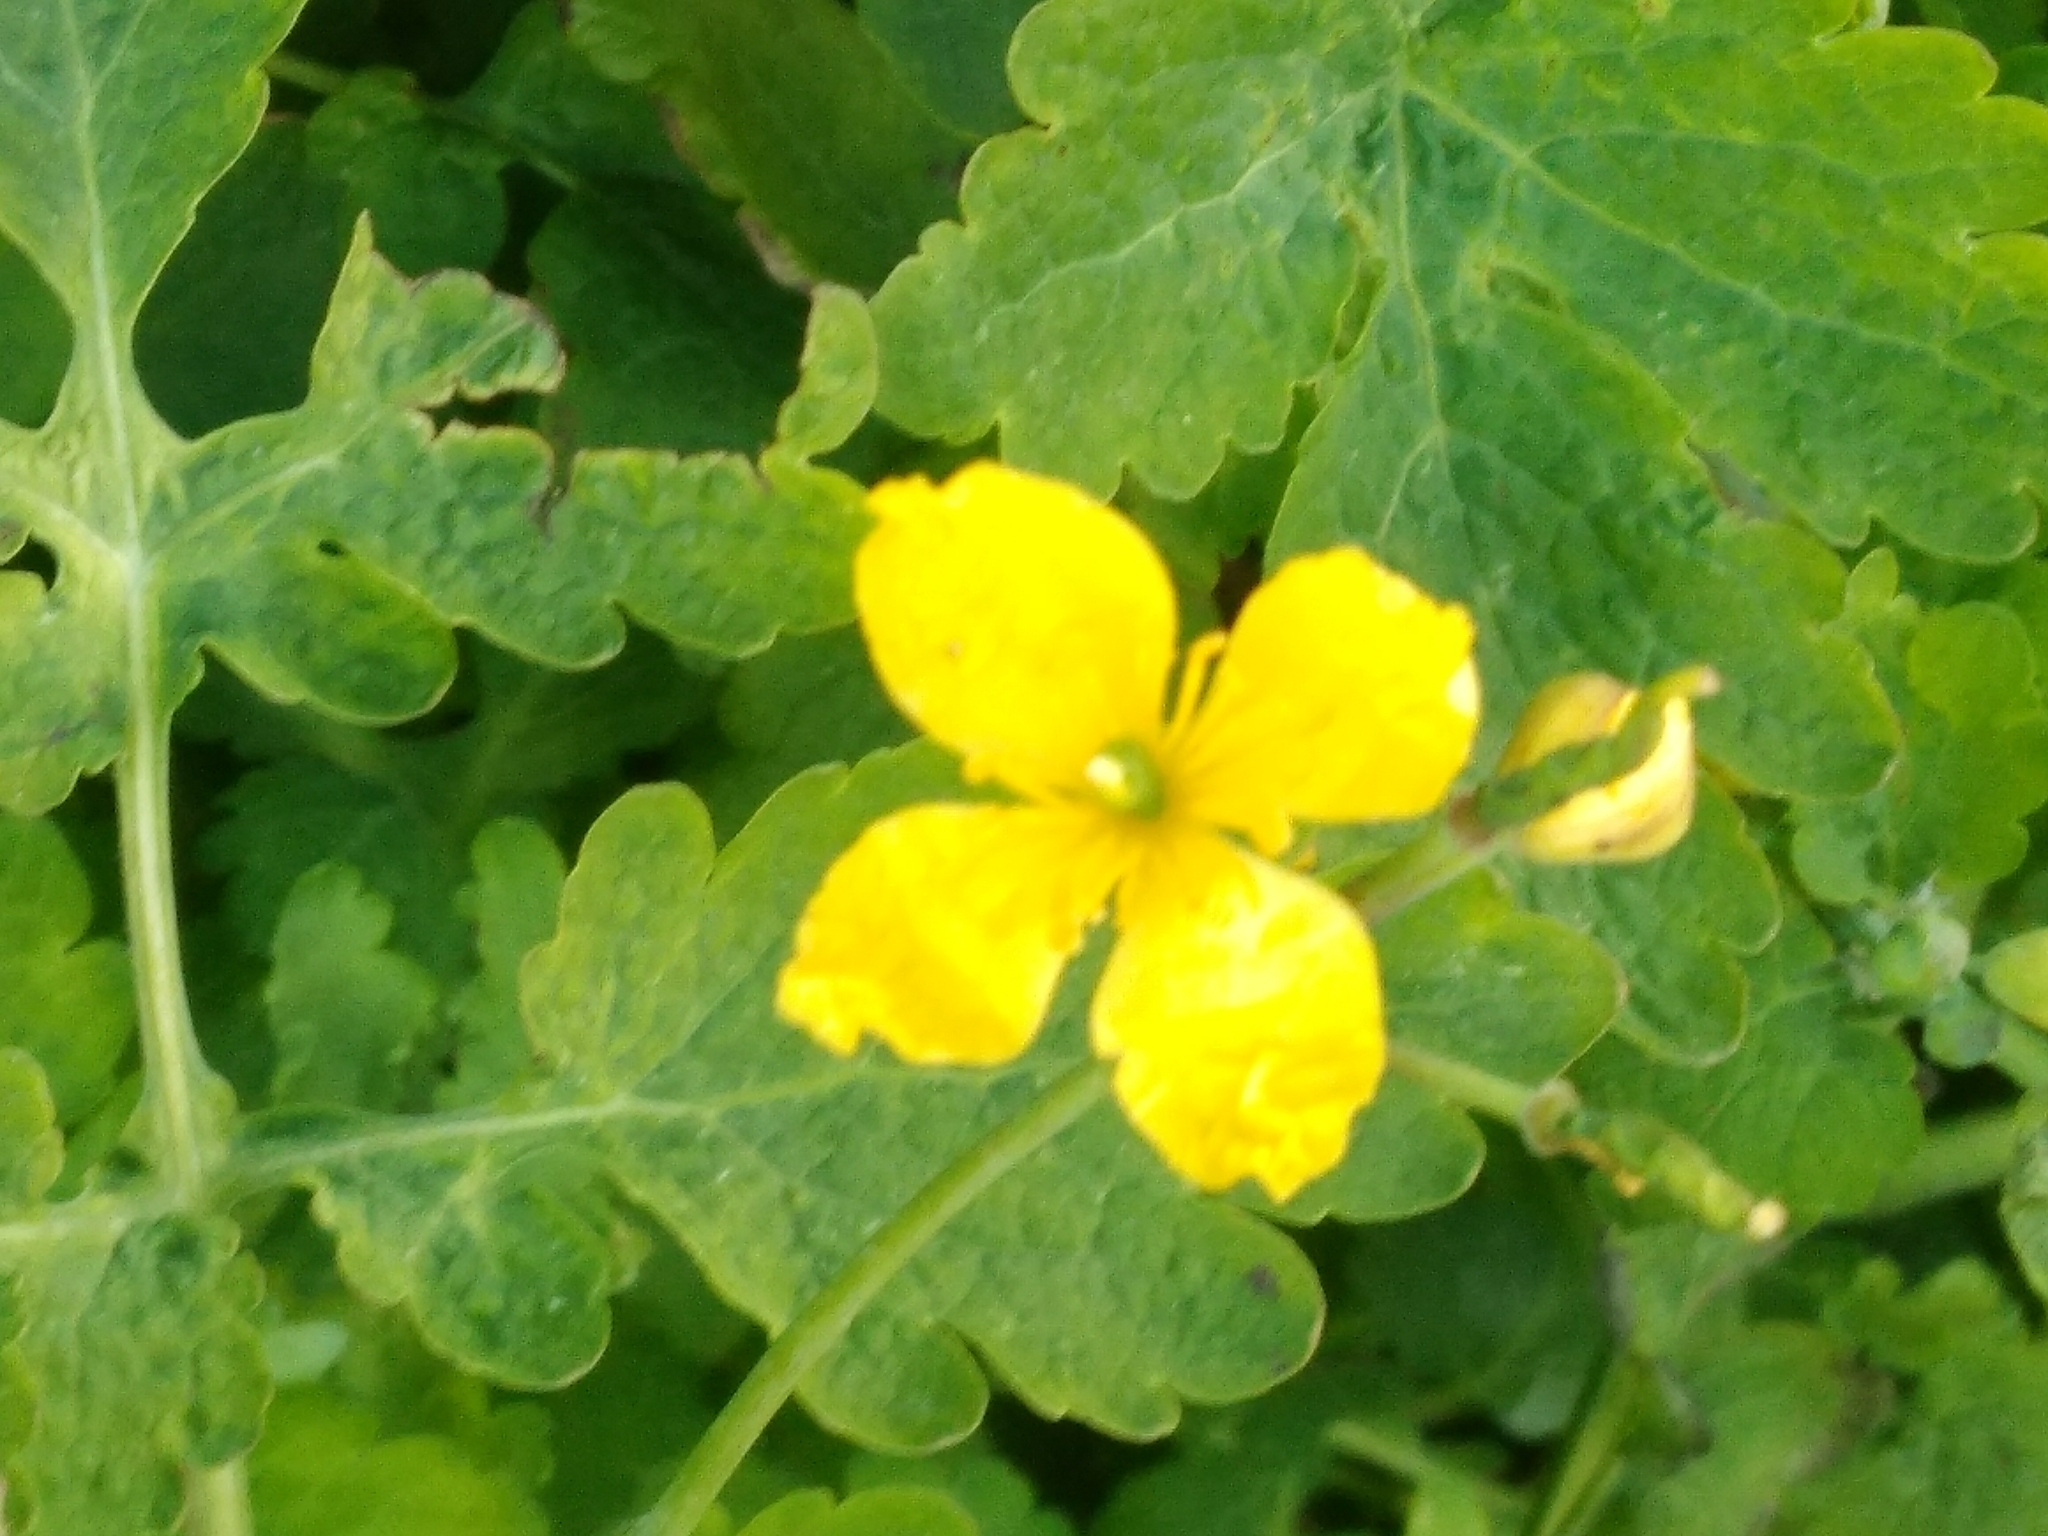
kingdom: Plantae
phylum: Tracheophyta
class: Magnoliopsida
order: Ranunculales
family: Papaveraceae
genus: Chelidonium
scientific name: Chelidonium majus
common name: Greater celandine
